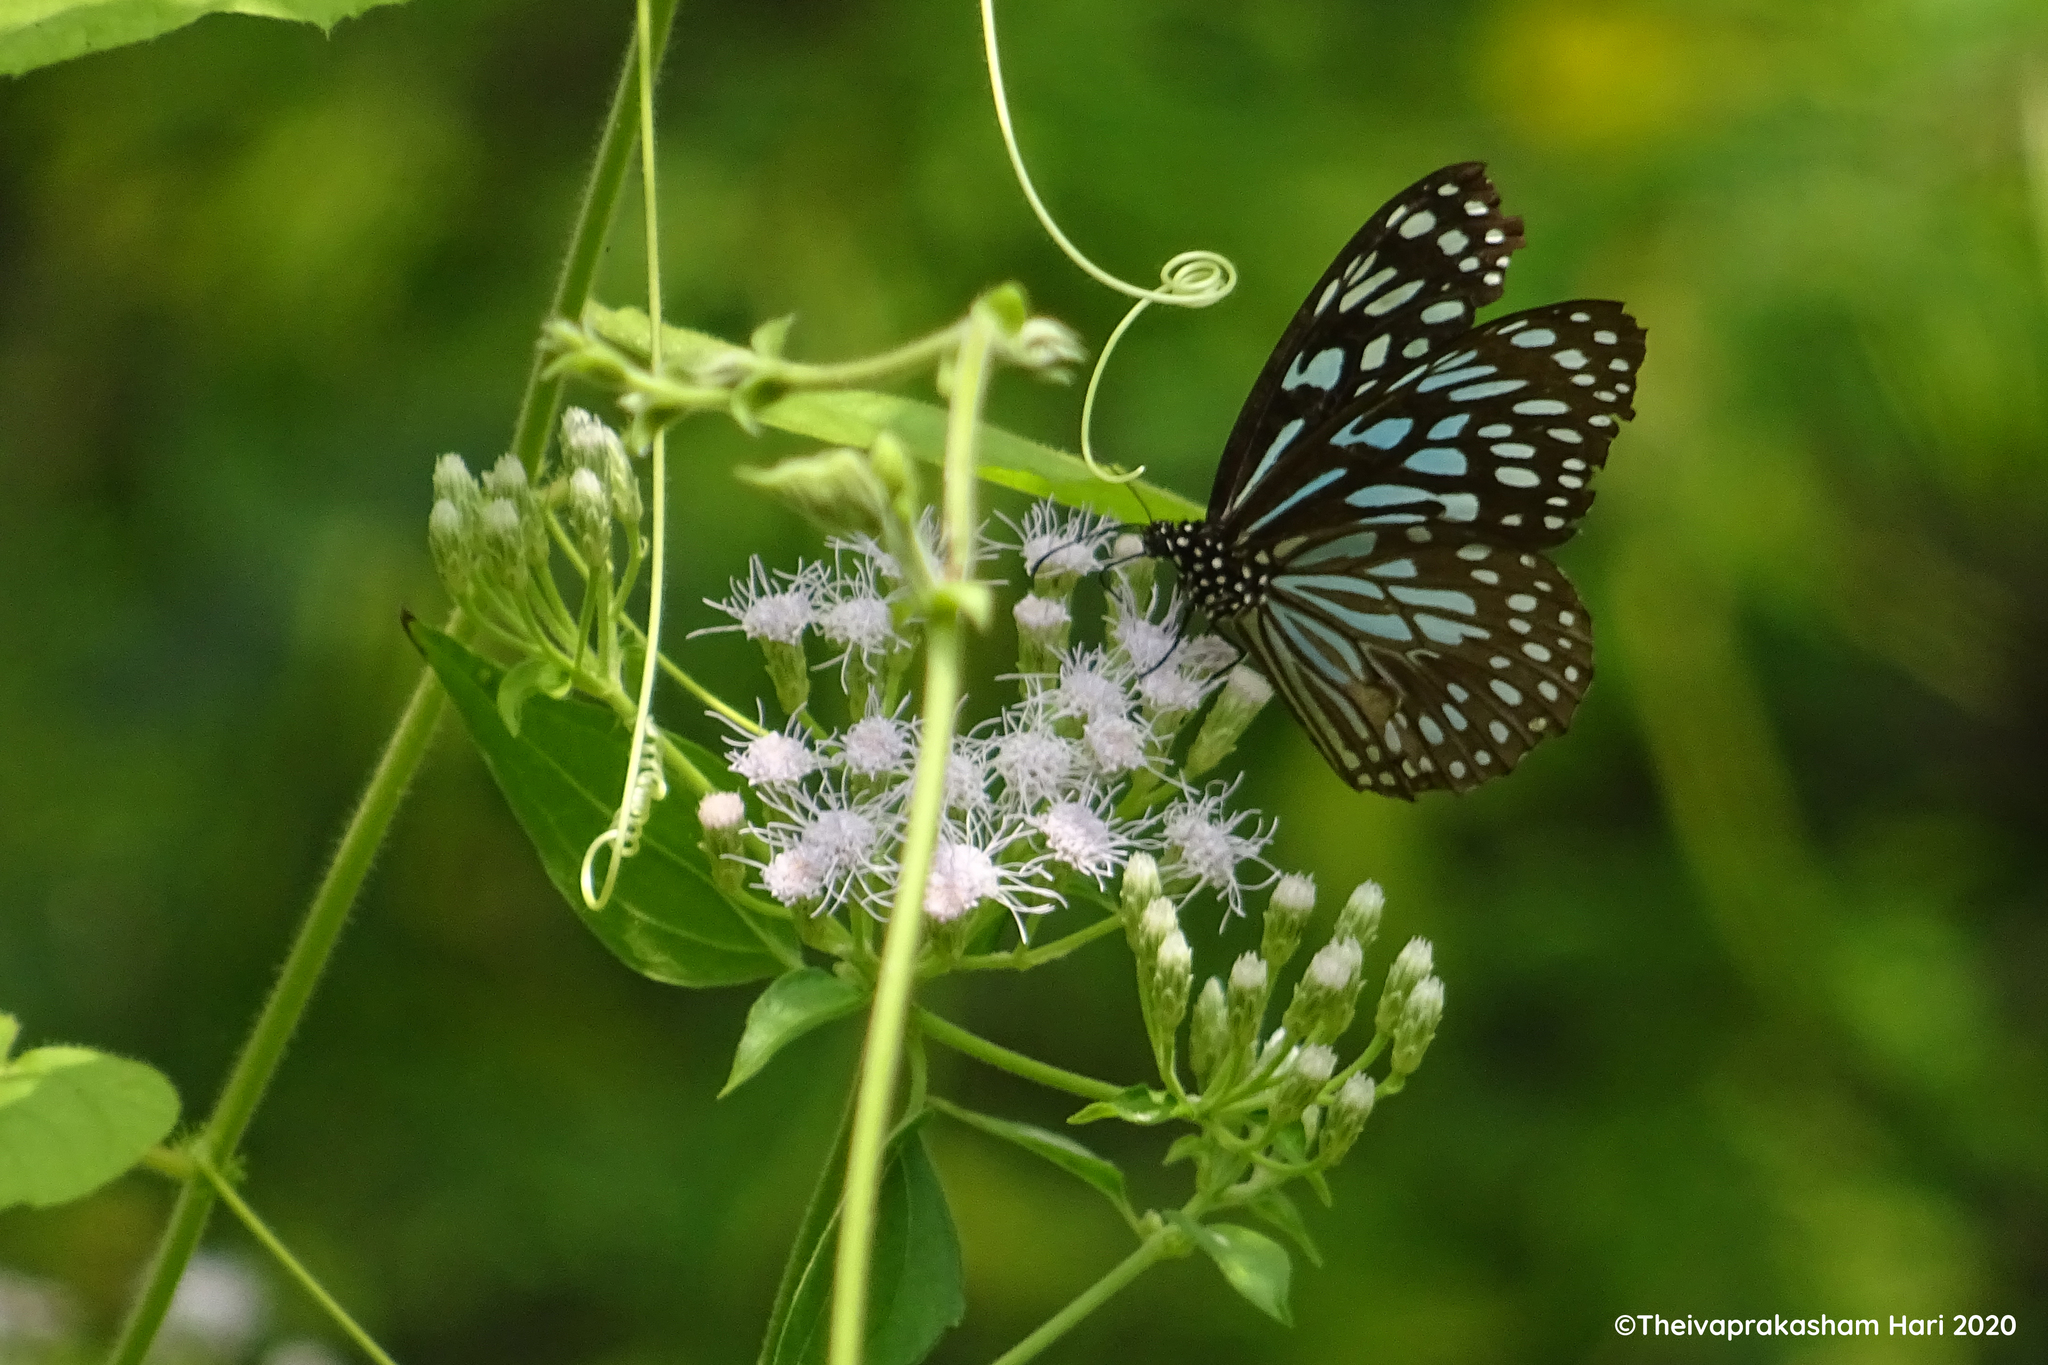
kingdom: Animalia
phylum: Arthropoda
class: Insecta
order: Lepidoptera
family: Nymphalidae
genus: Tirumala
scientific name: Tirumala septentrionis
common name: Dark blue tiger butterfly
